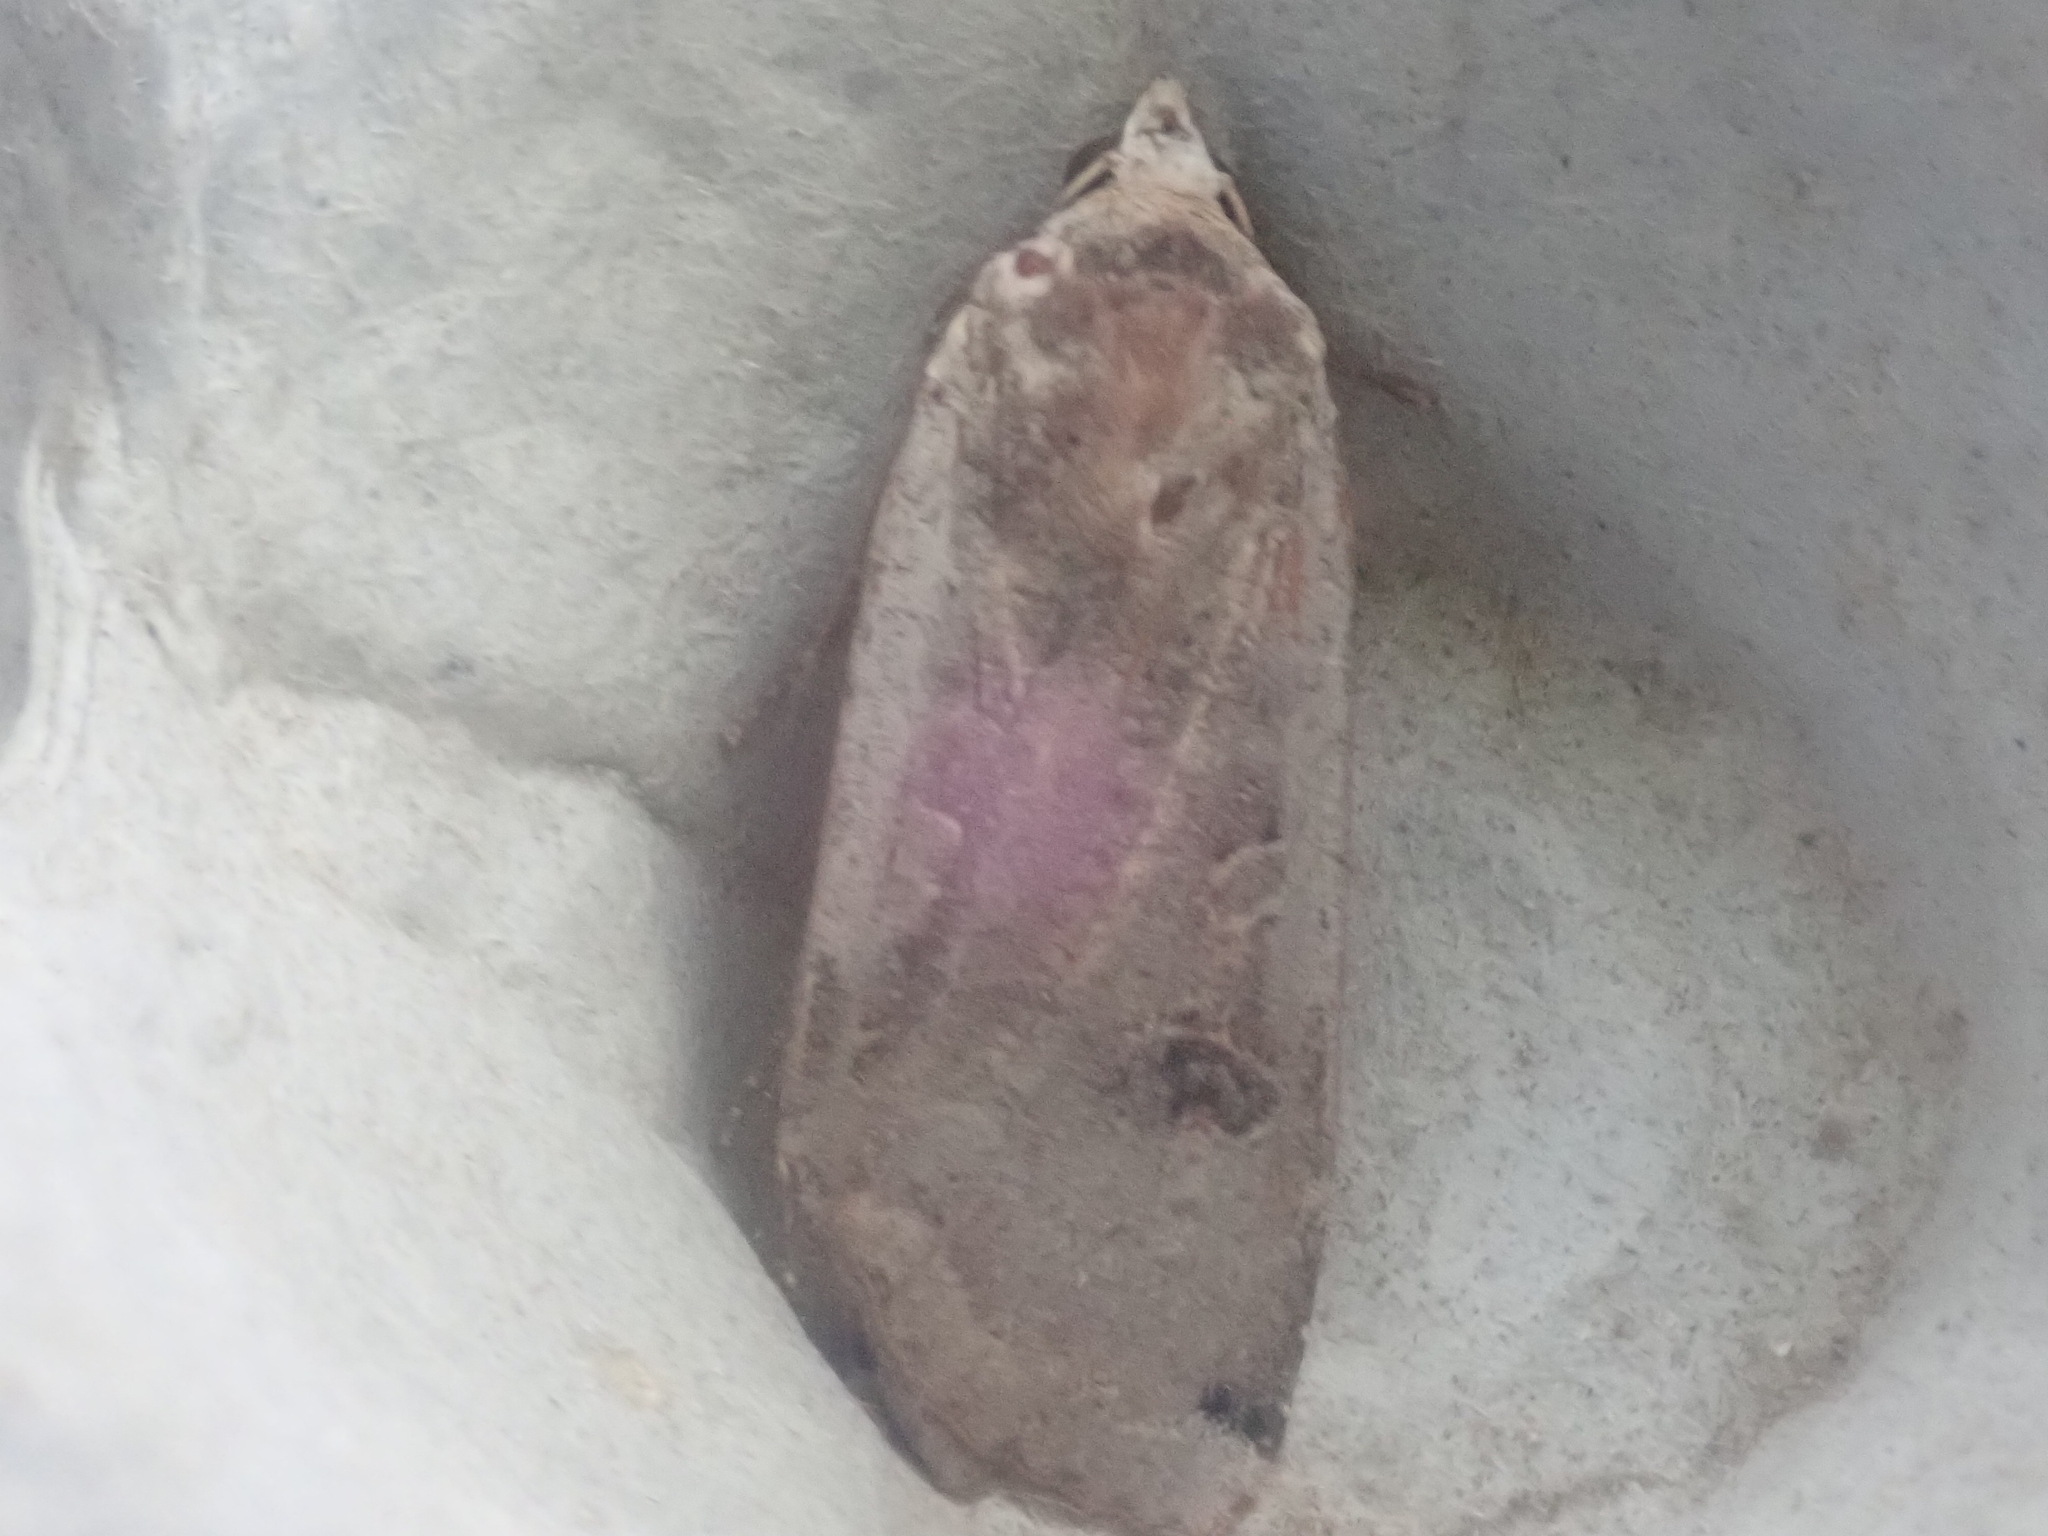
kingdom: Animalia
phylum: Arthropoda
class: Insecta
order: Lepidoptera
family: Noctuidae
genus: Noctua
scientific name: Noctua pronuba
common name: Large yellow underwing
